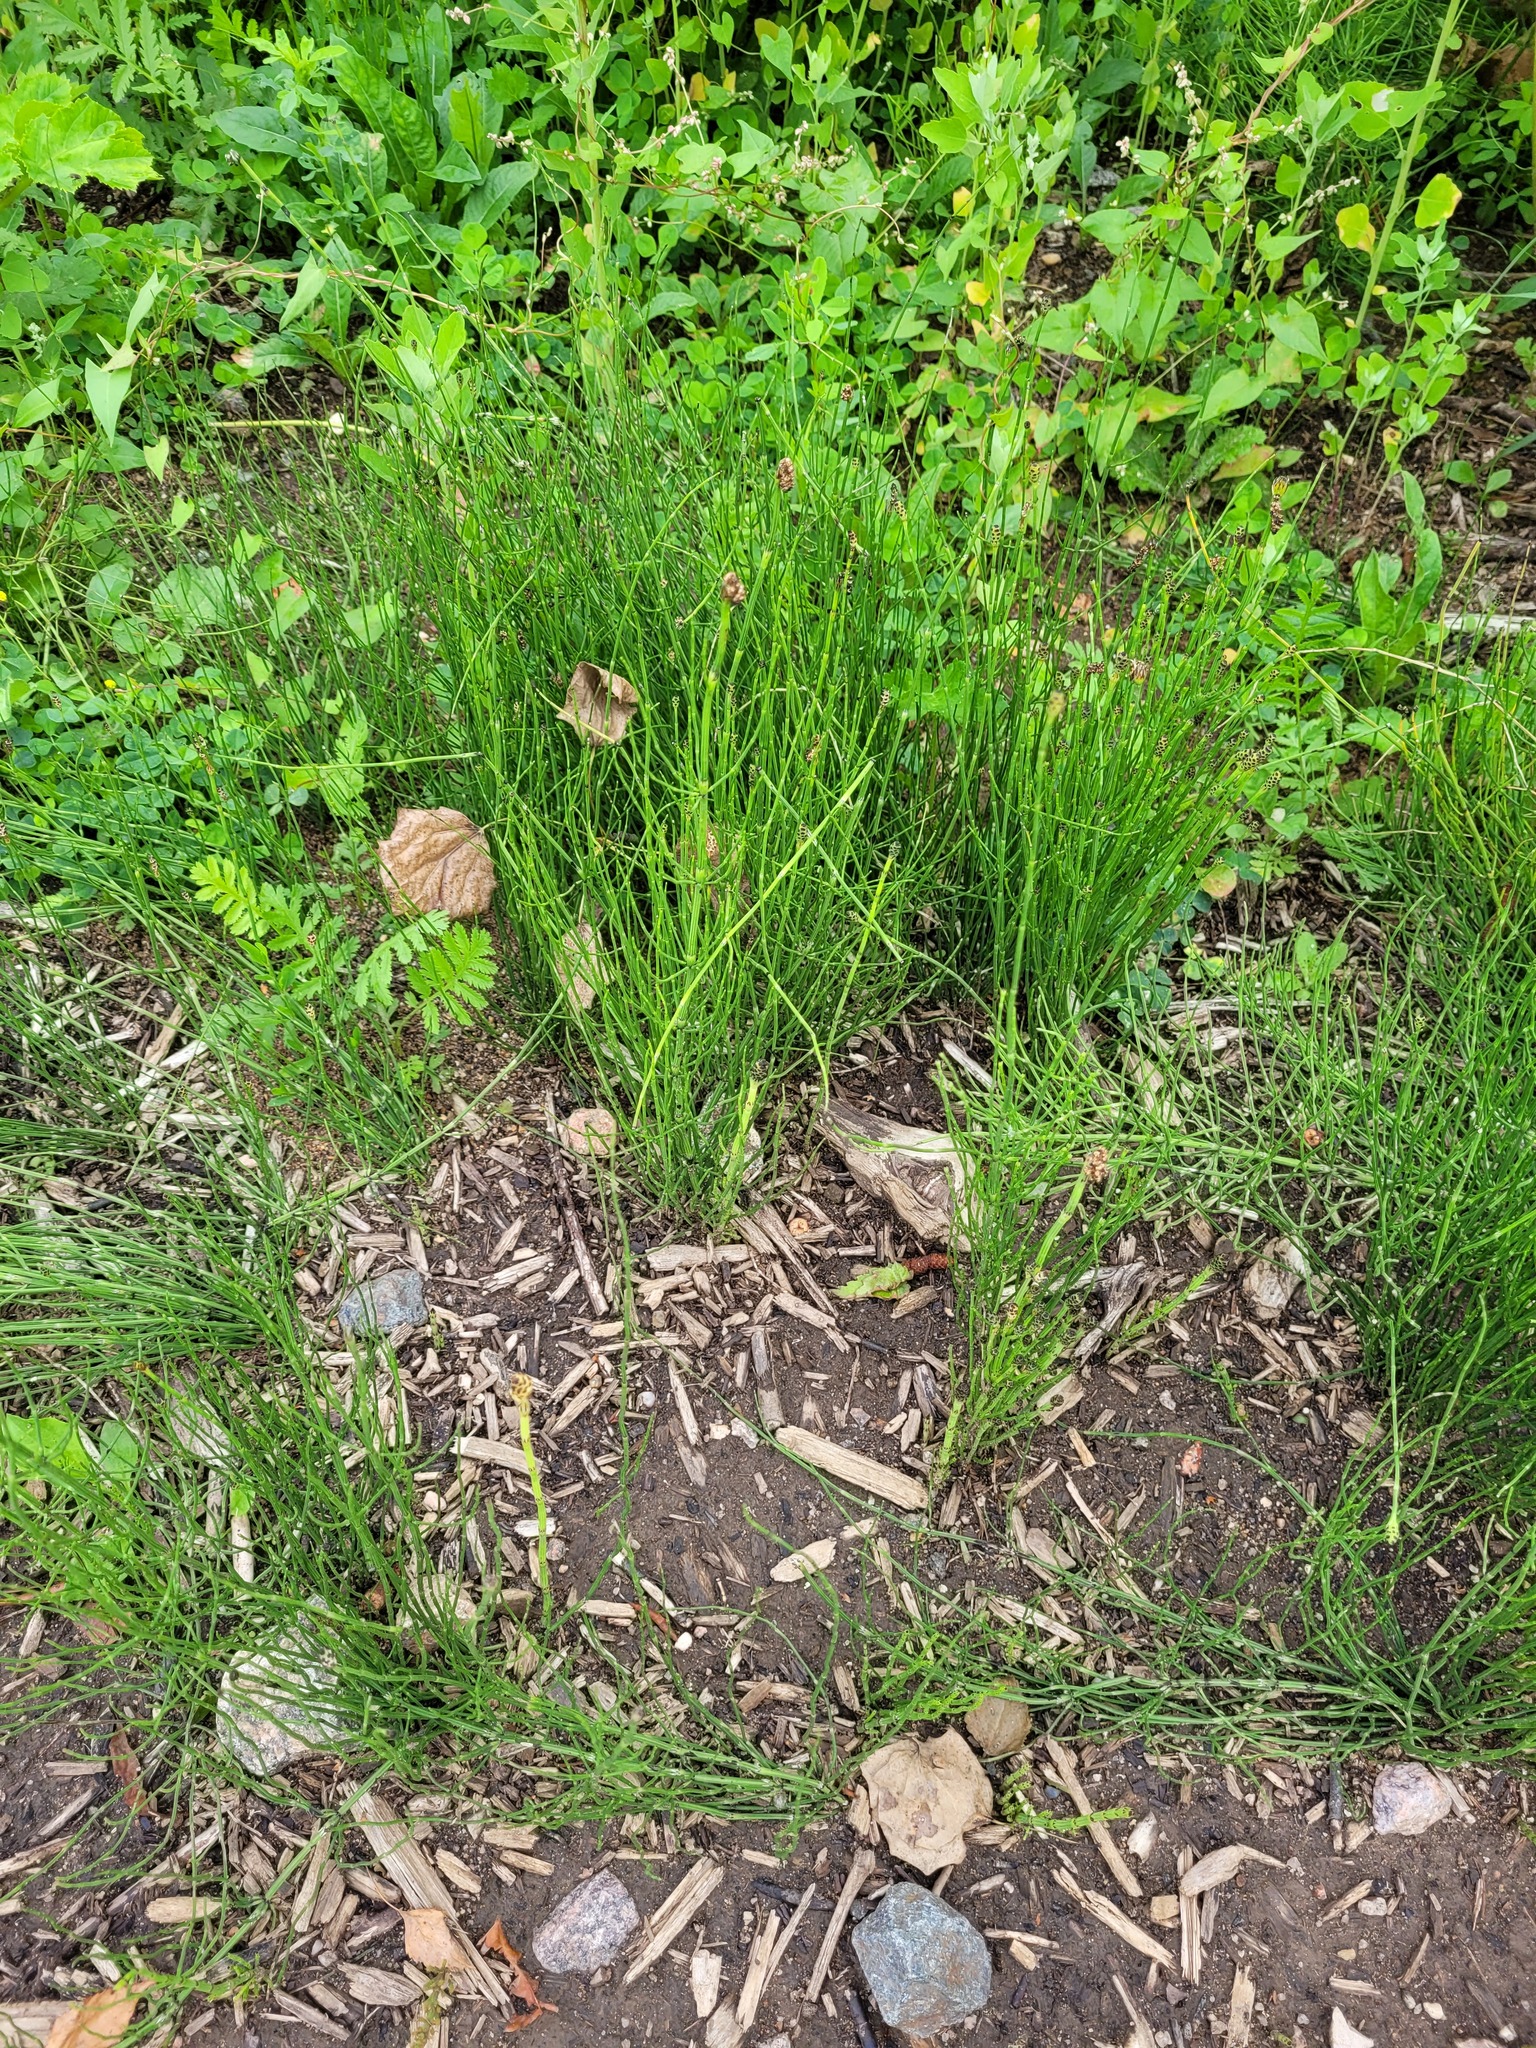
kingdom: Plantae
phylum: Tracheophyta
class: Polypodiopsida
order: Equisetales
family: Equisetaceae
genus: Equisetum
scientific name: Equisetum palustre
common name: Marsh horsetail
